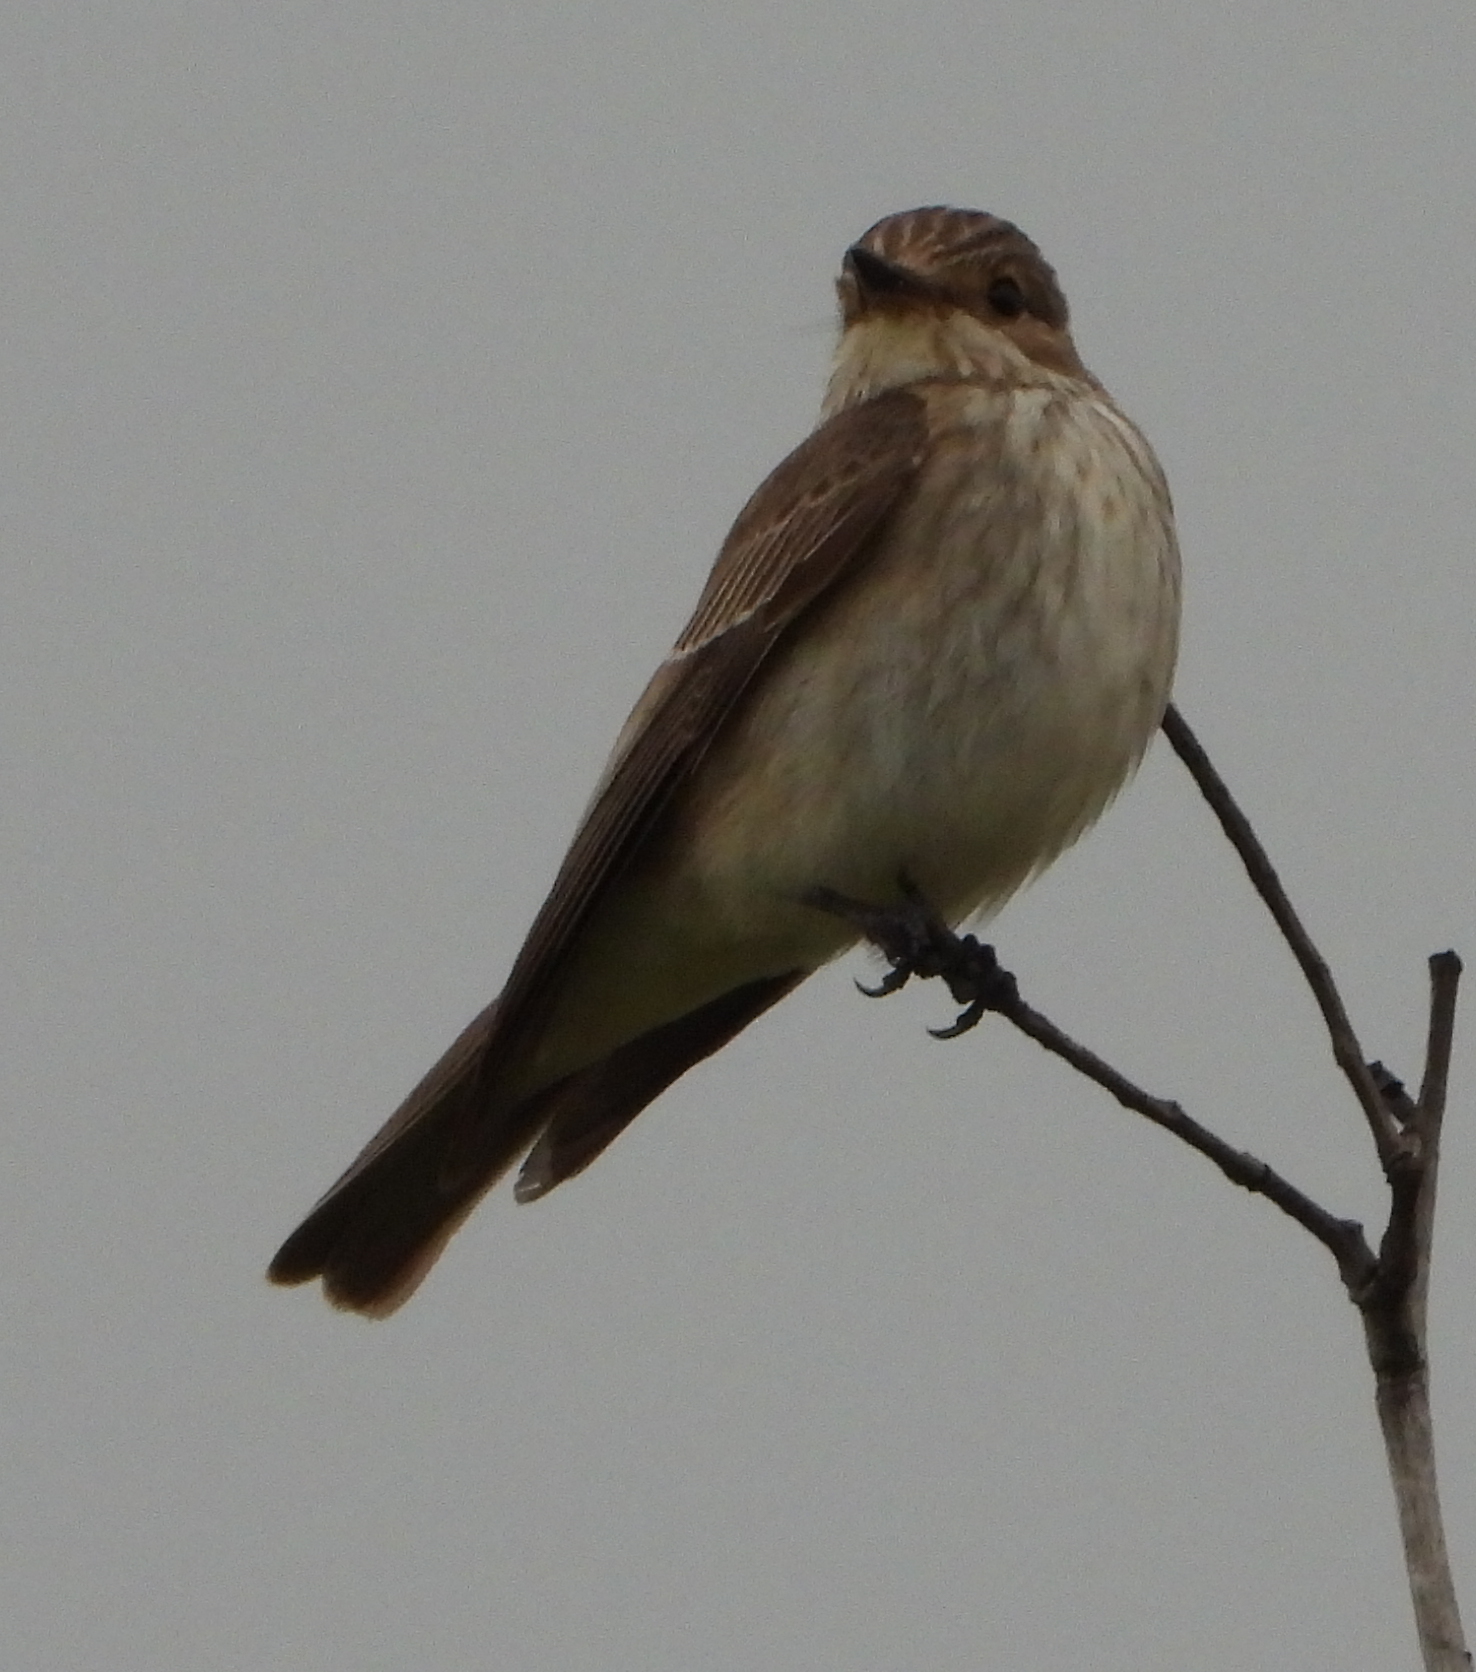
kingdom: Animalia
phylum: Chordata
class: Aves
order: Passeriformes
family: Muscicapidae
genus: Muscicapa
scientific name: Muscicapa striata
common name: Spotted flycatcher
